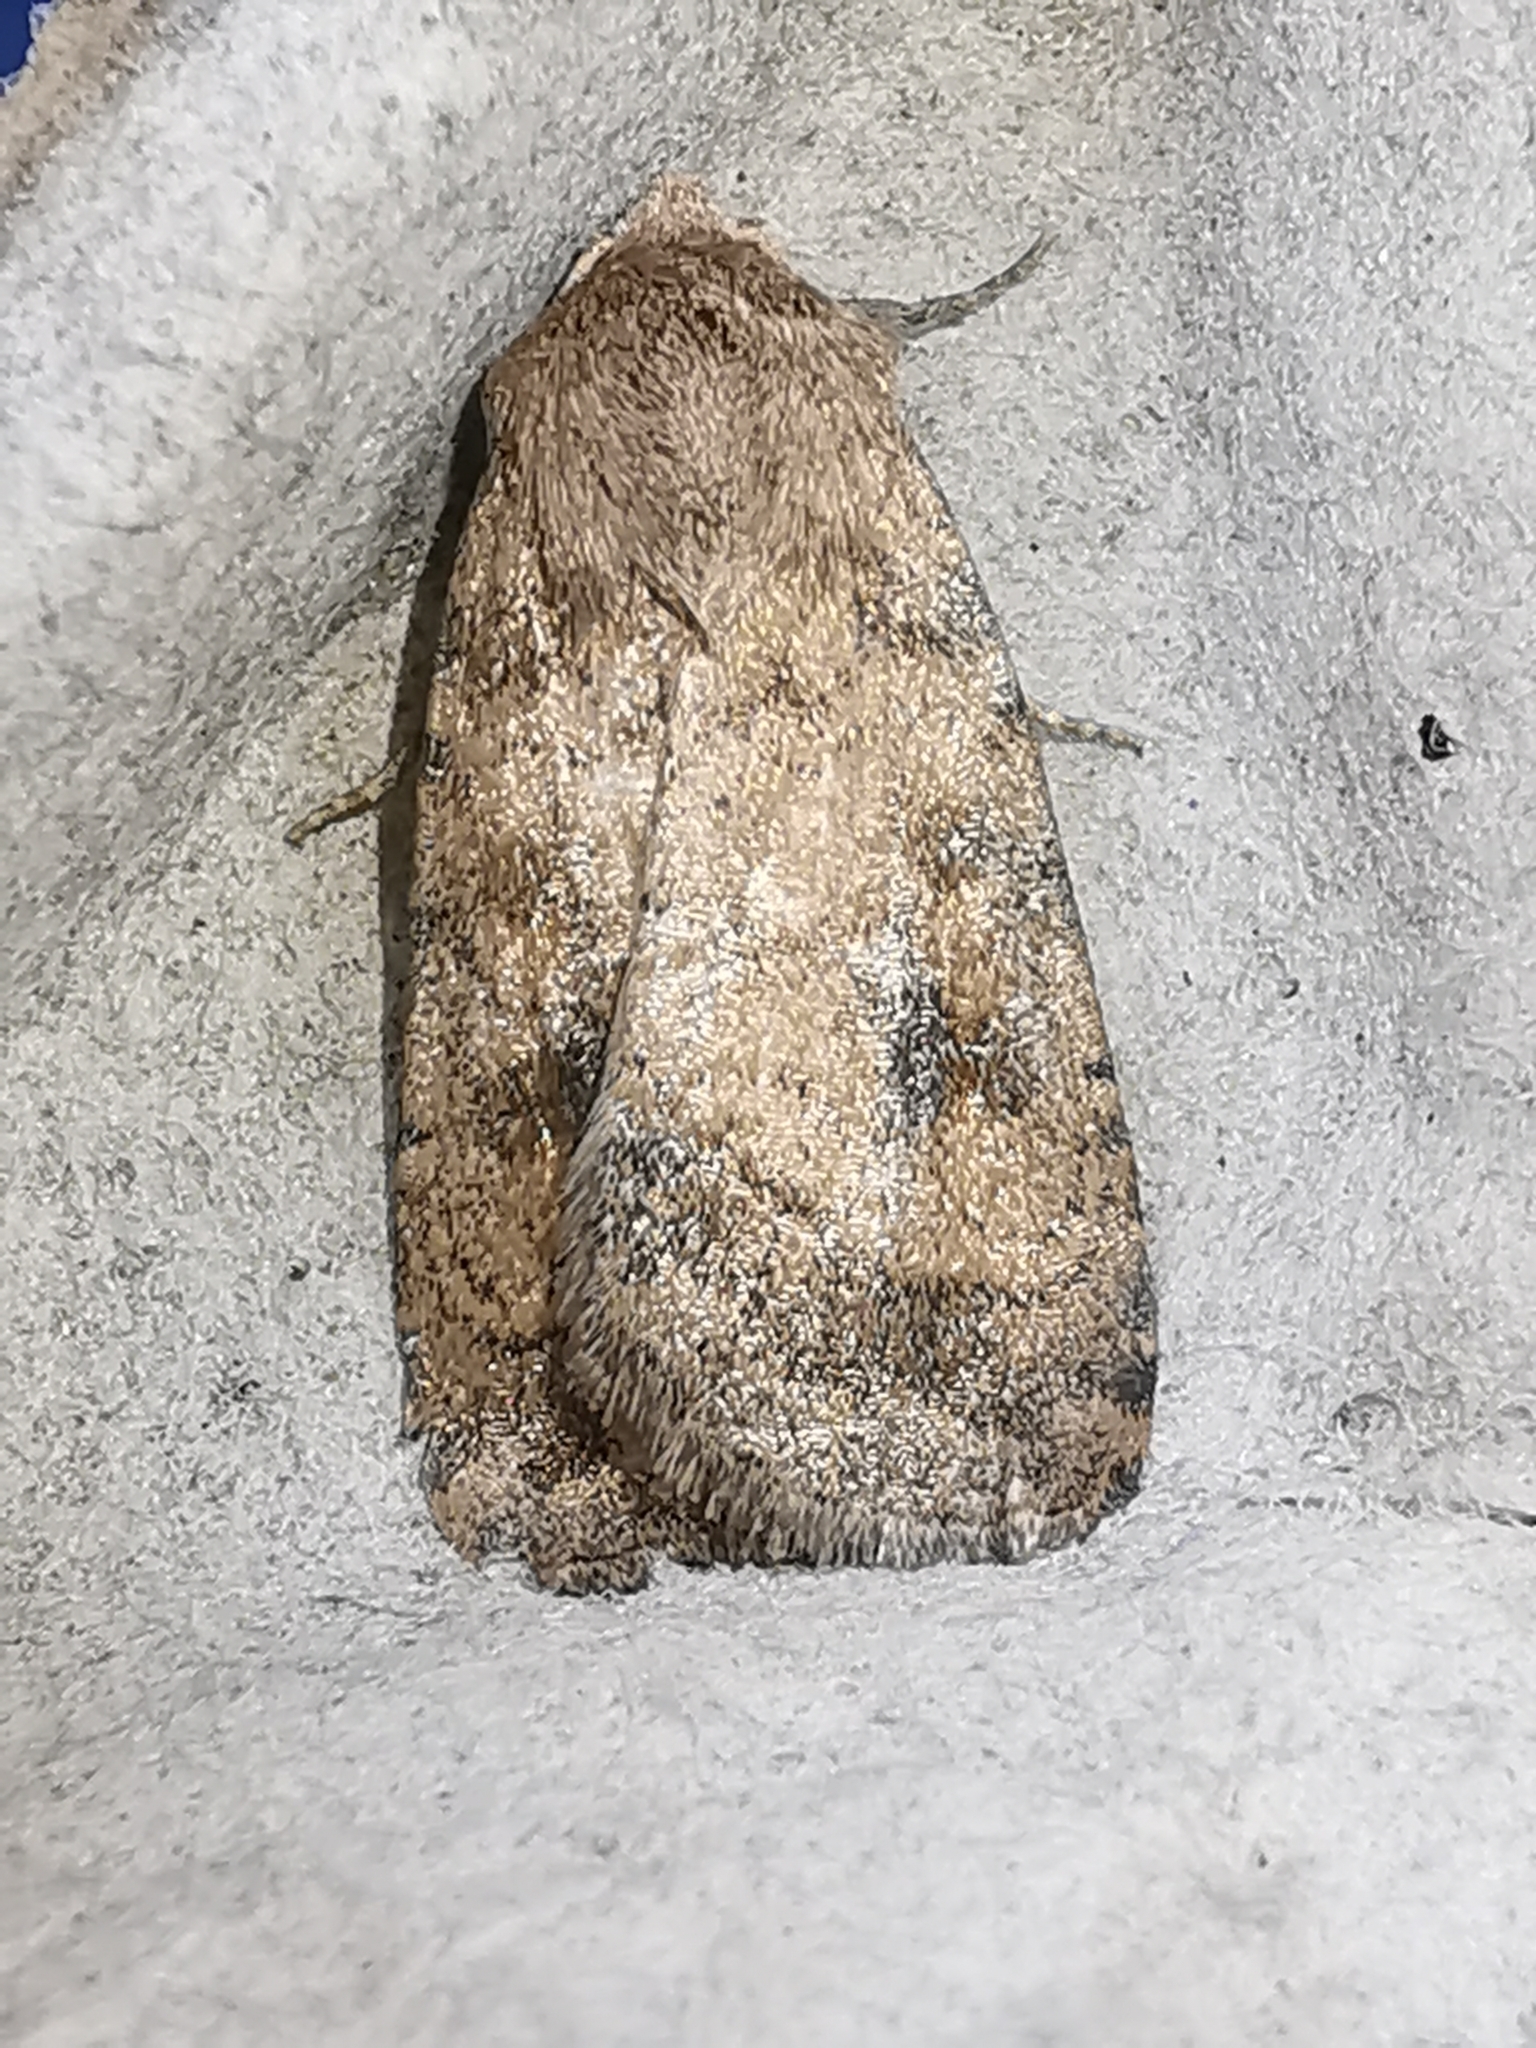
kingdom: Animalia
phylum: Arthropoda
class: Insecta
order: Lepidoptera
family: Noctuidae
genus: Caradrina
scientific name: Caradrina morpheus
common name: Mottled rustic
